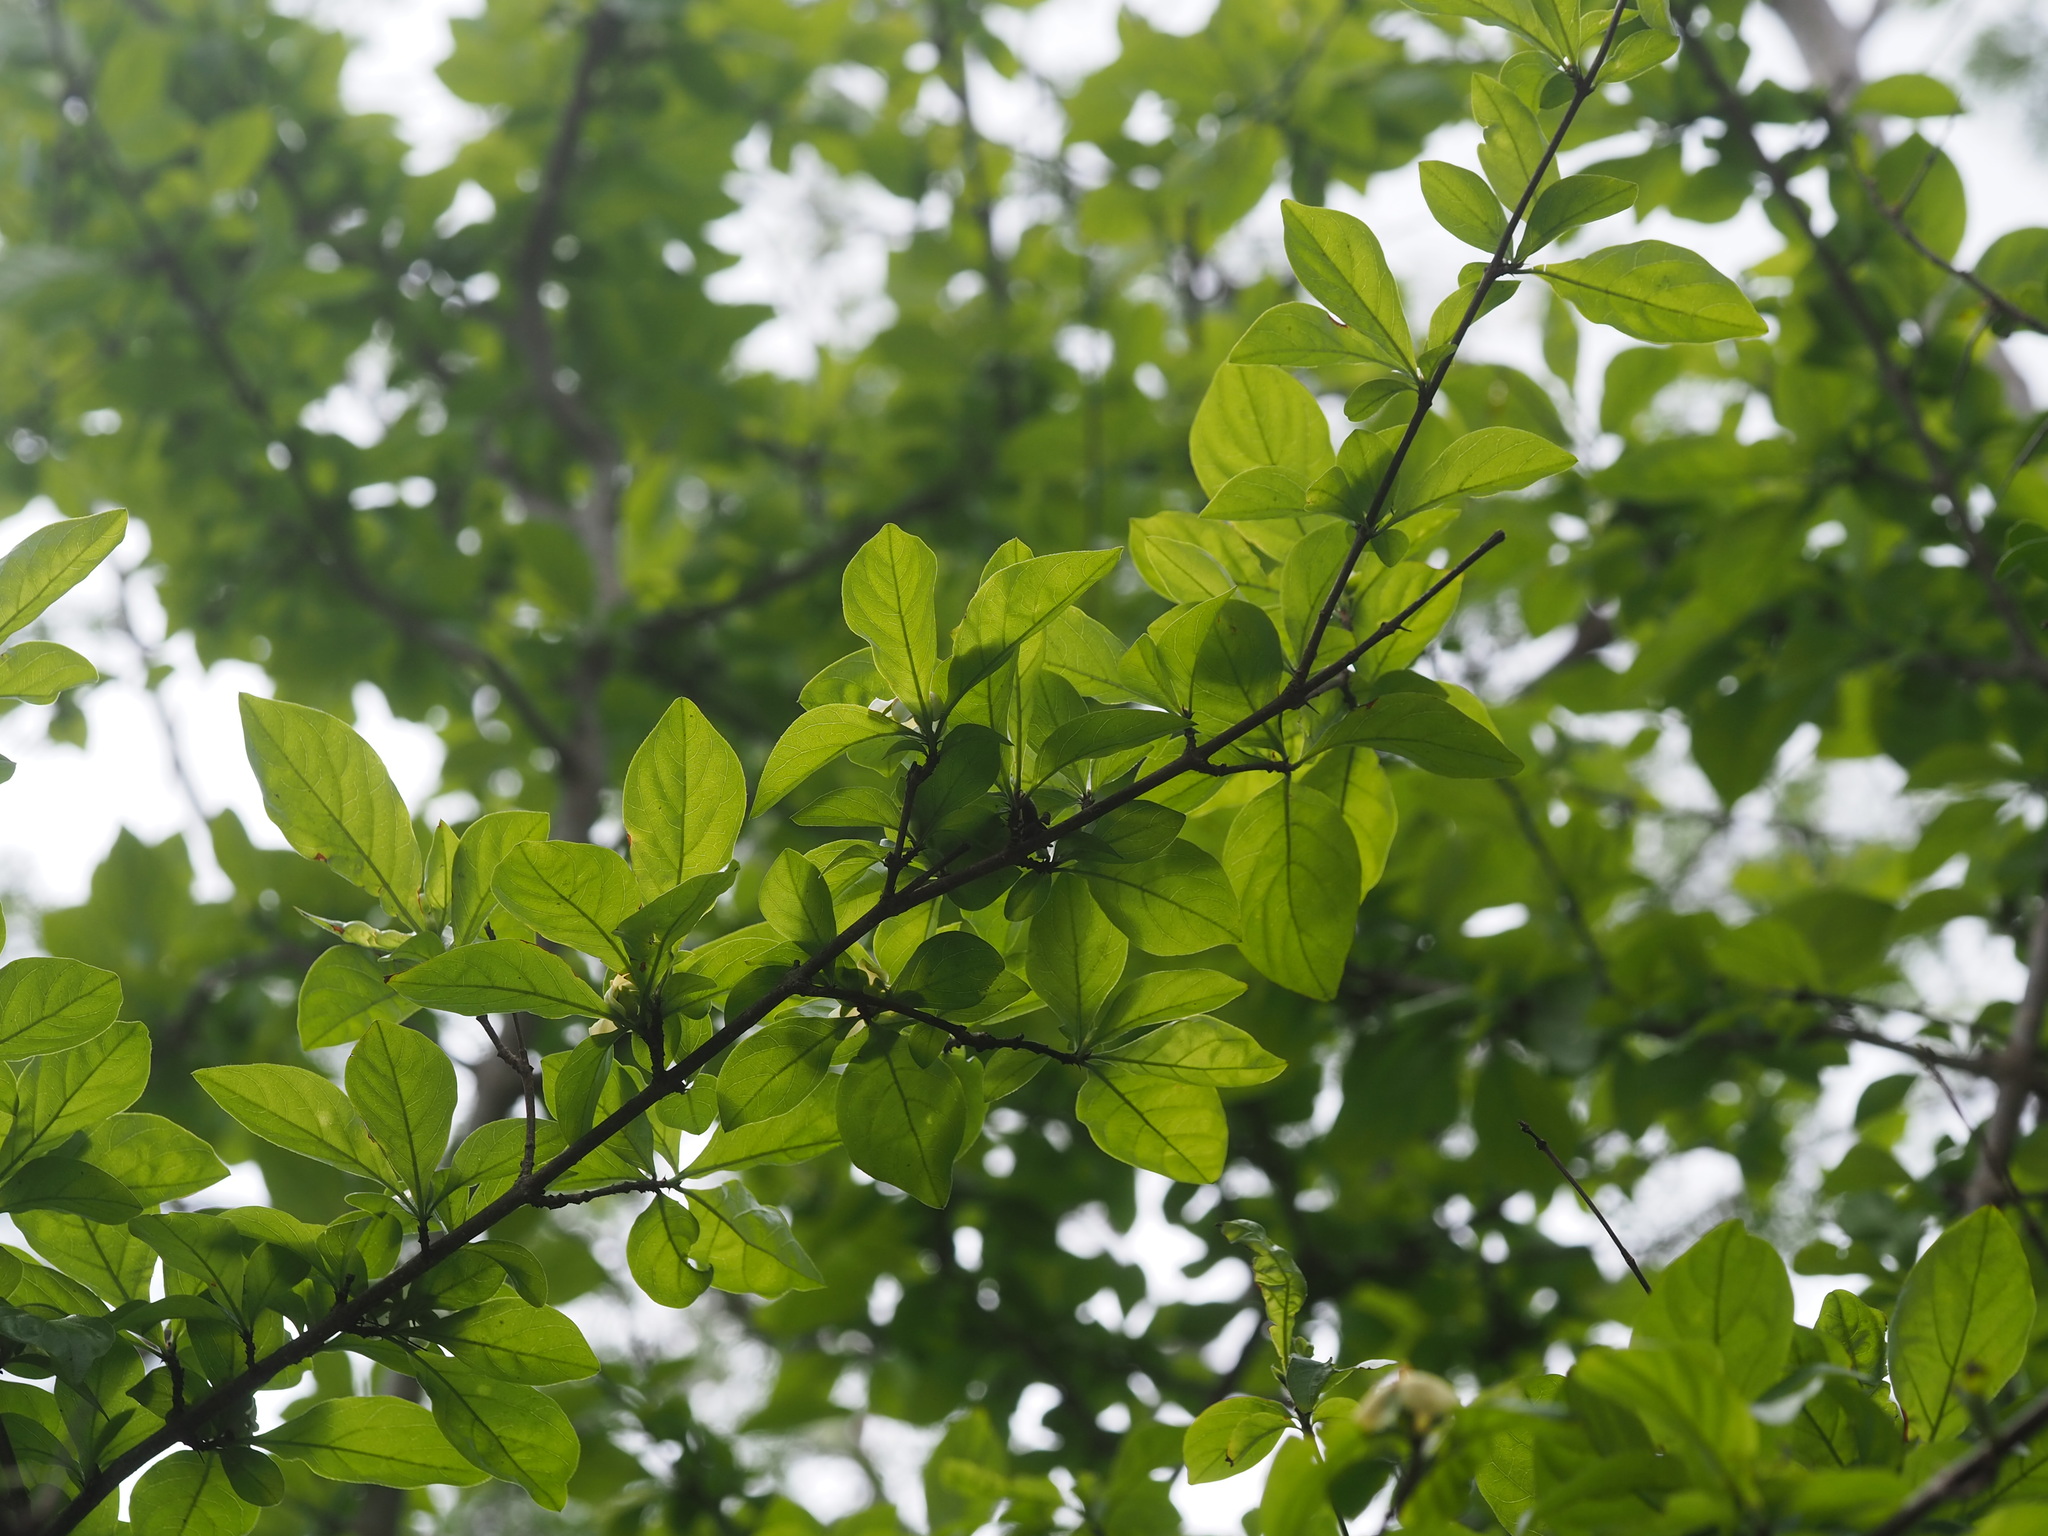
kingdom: Plantae
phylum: Tracheophyta
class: Magnoliopsida
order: Gentianales
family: Rubiaceae
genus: Catunaregam
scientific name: Catunaregam spinosa
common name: Emetic-nut
